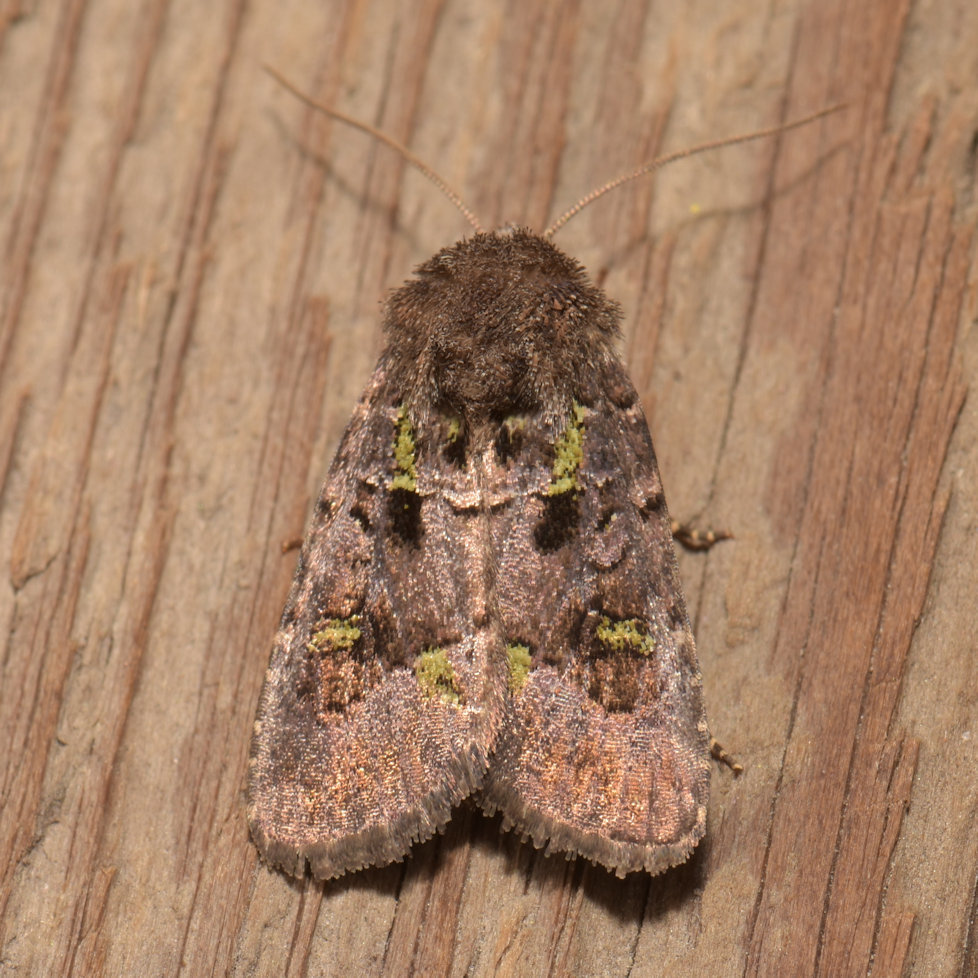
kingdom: Animalia
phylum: Arthropoda
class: Insecta
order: Lepidoptera
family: Noctuidae
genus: Lacinipolia
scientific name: Lacinipolia renigera
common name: Kidney-spotted minor
